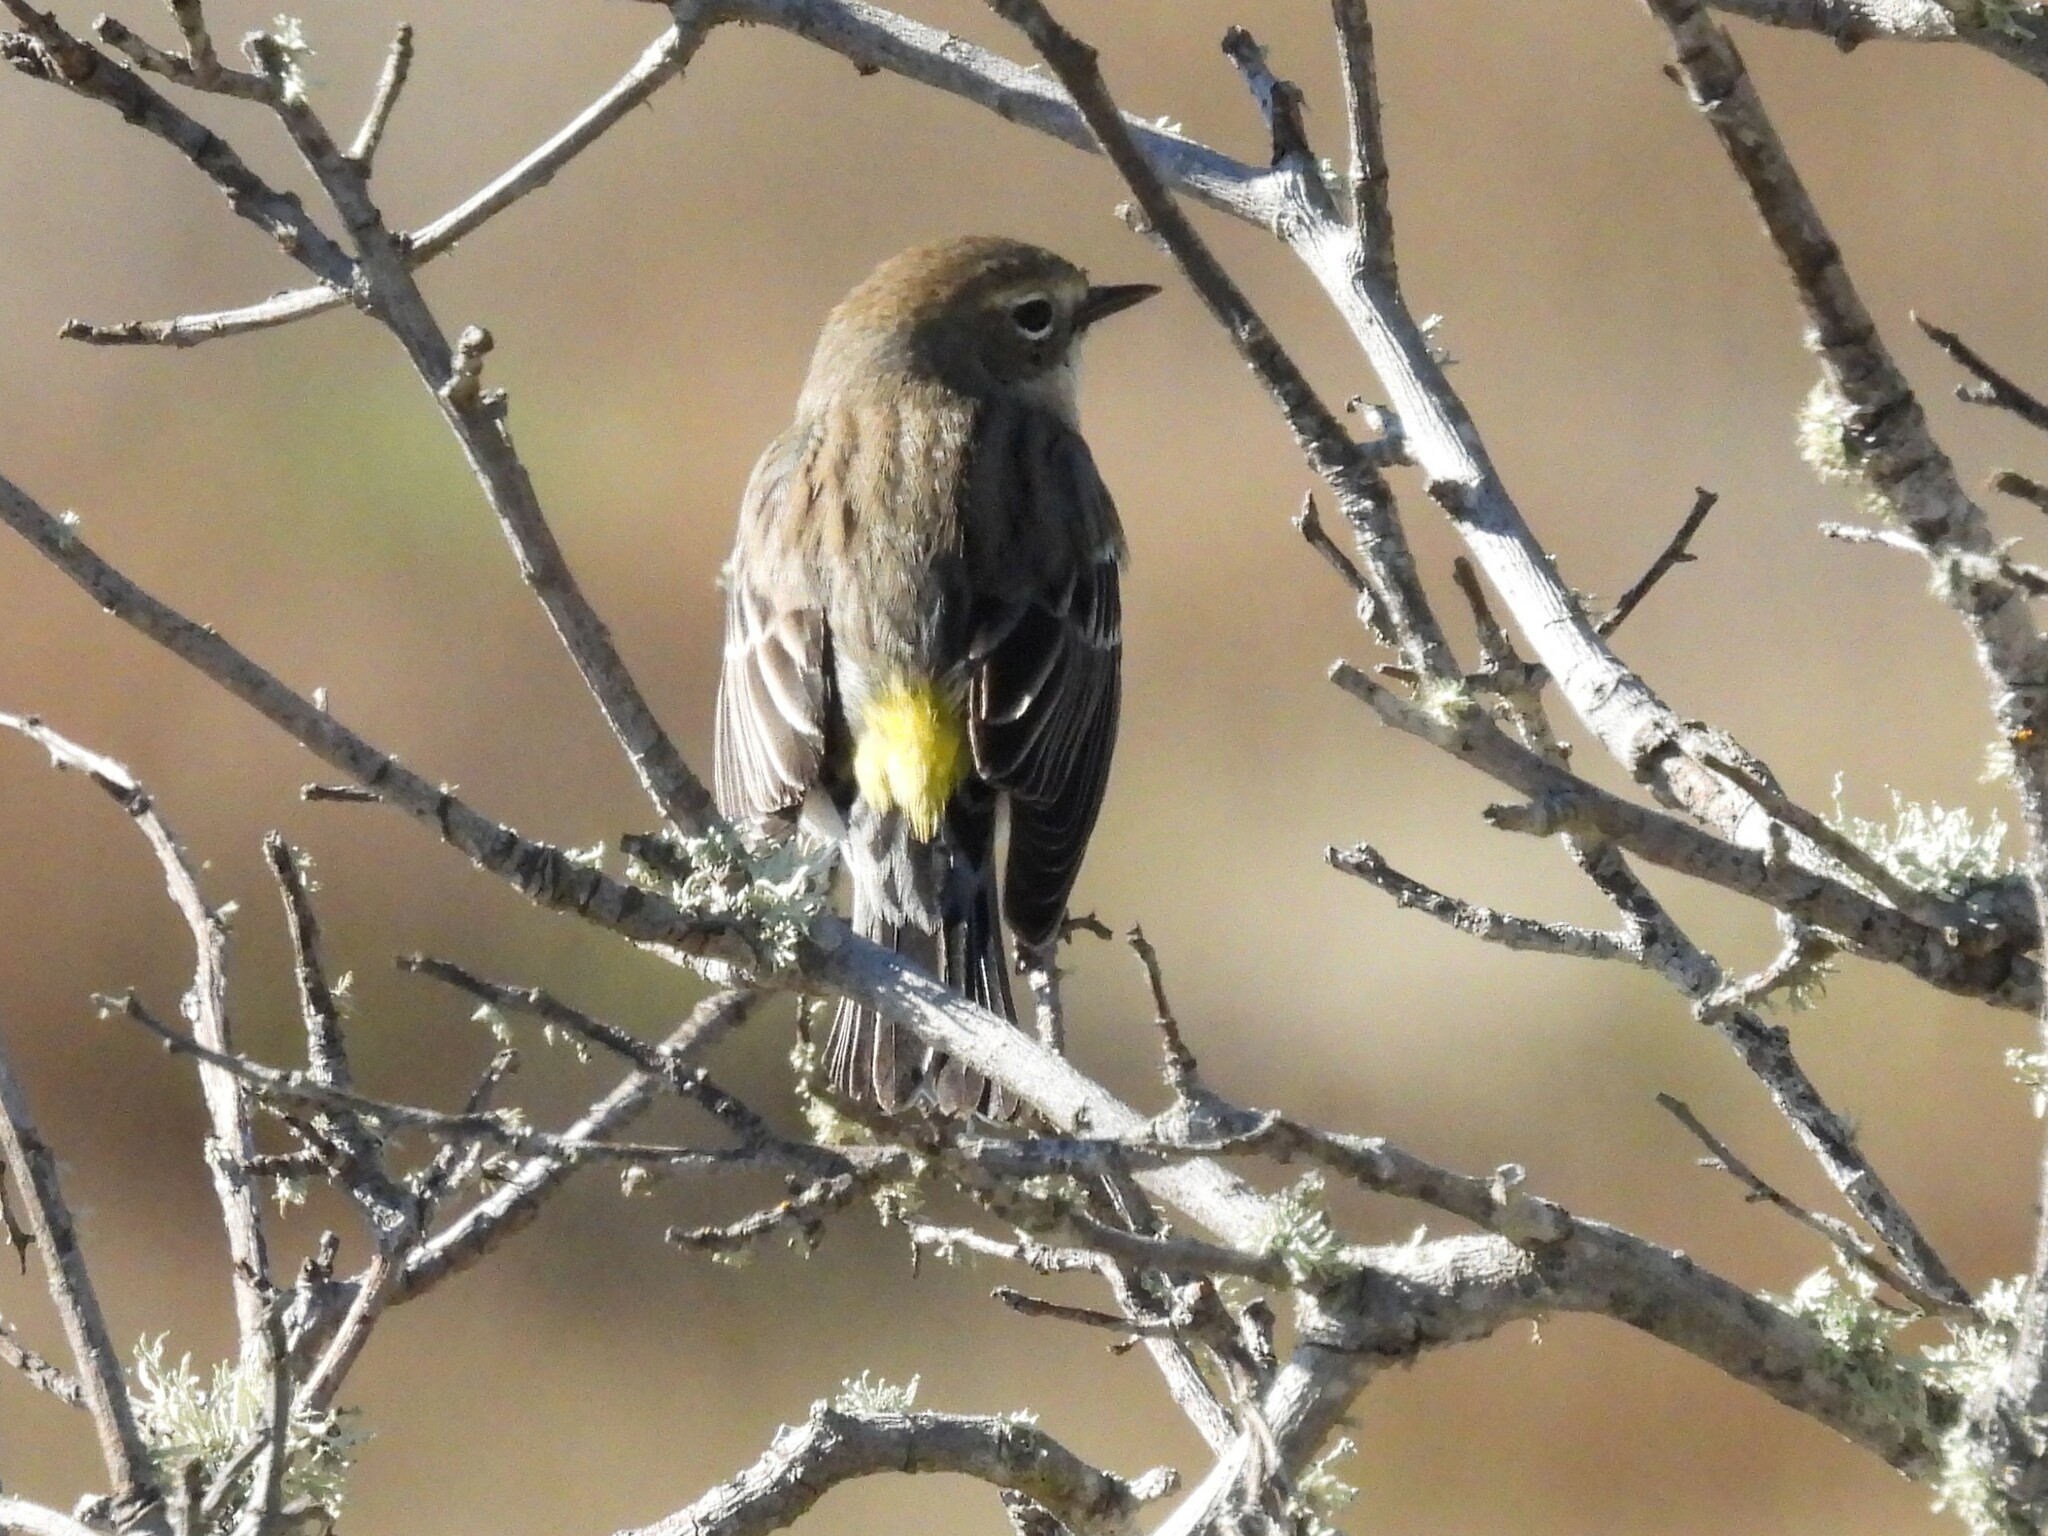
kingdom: Animalia
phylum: Chordata
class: Aves
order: Passeriformes
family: Parulidae
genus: Setophaga
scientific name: Setophaga coronata
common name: Myrtle warbler
